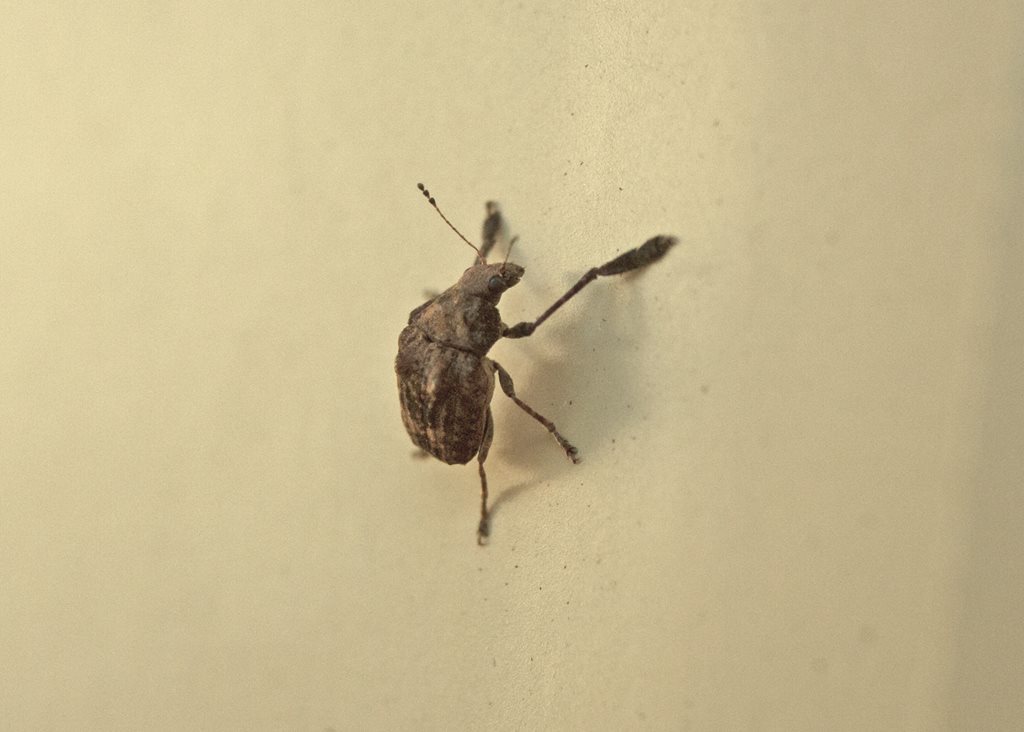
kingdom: Animalia
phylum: Arthropoda
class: Insecta
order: Coleoptera
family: Anthribidae
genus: Araecerus
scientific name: Araecerus
